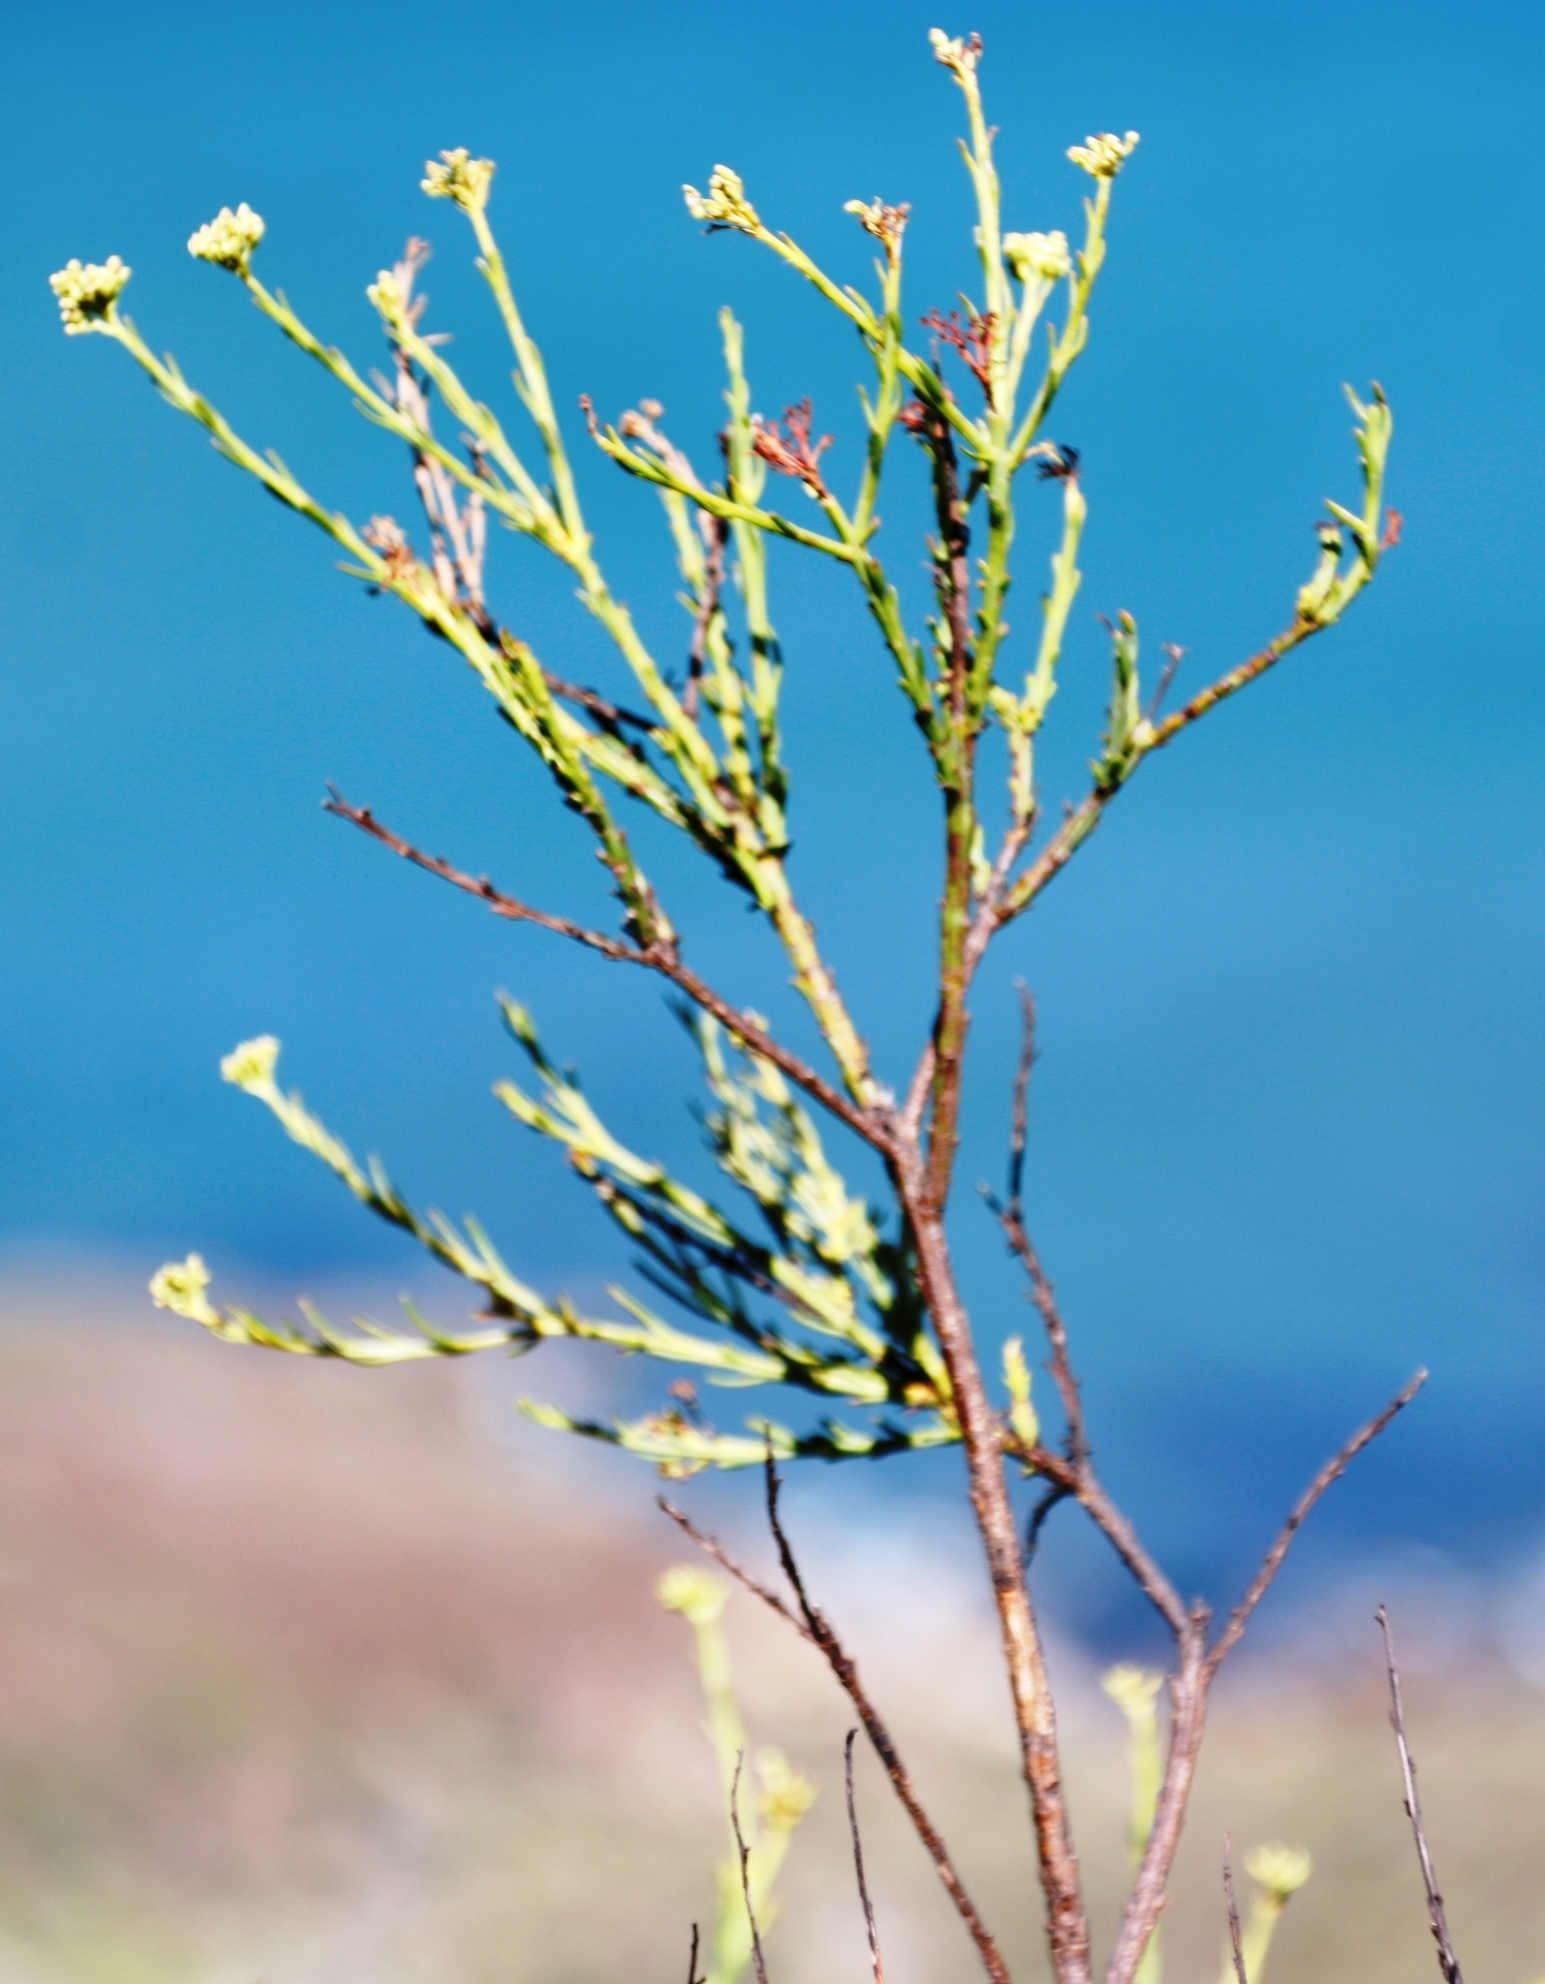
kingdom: Plantae
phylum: Tracheophyta
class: Magnoliopsida
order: Santalales
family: Thesiaceae
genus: Thesium
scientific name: Thesium strictum
